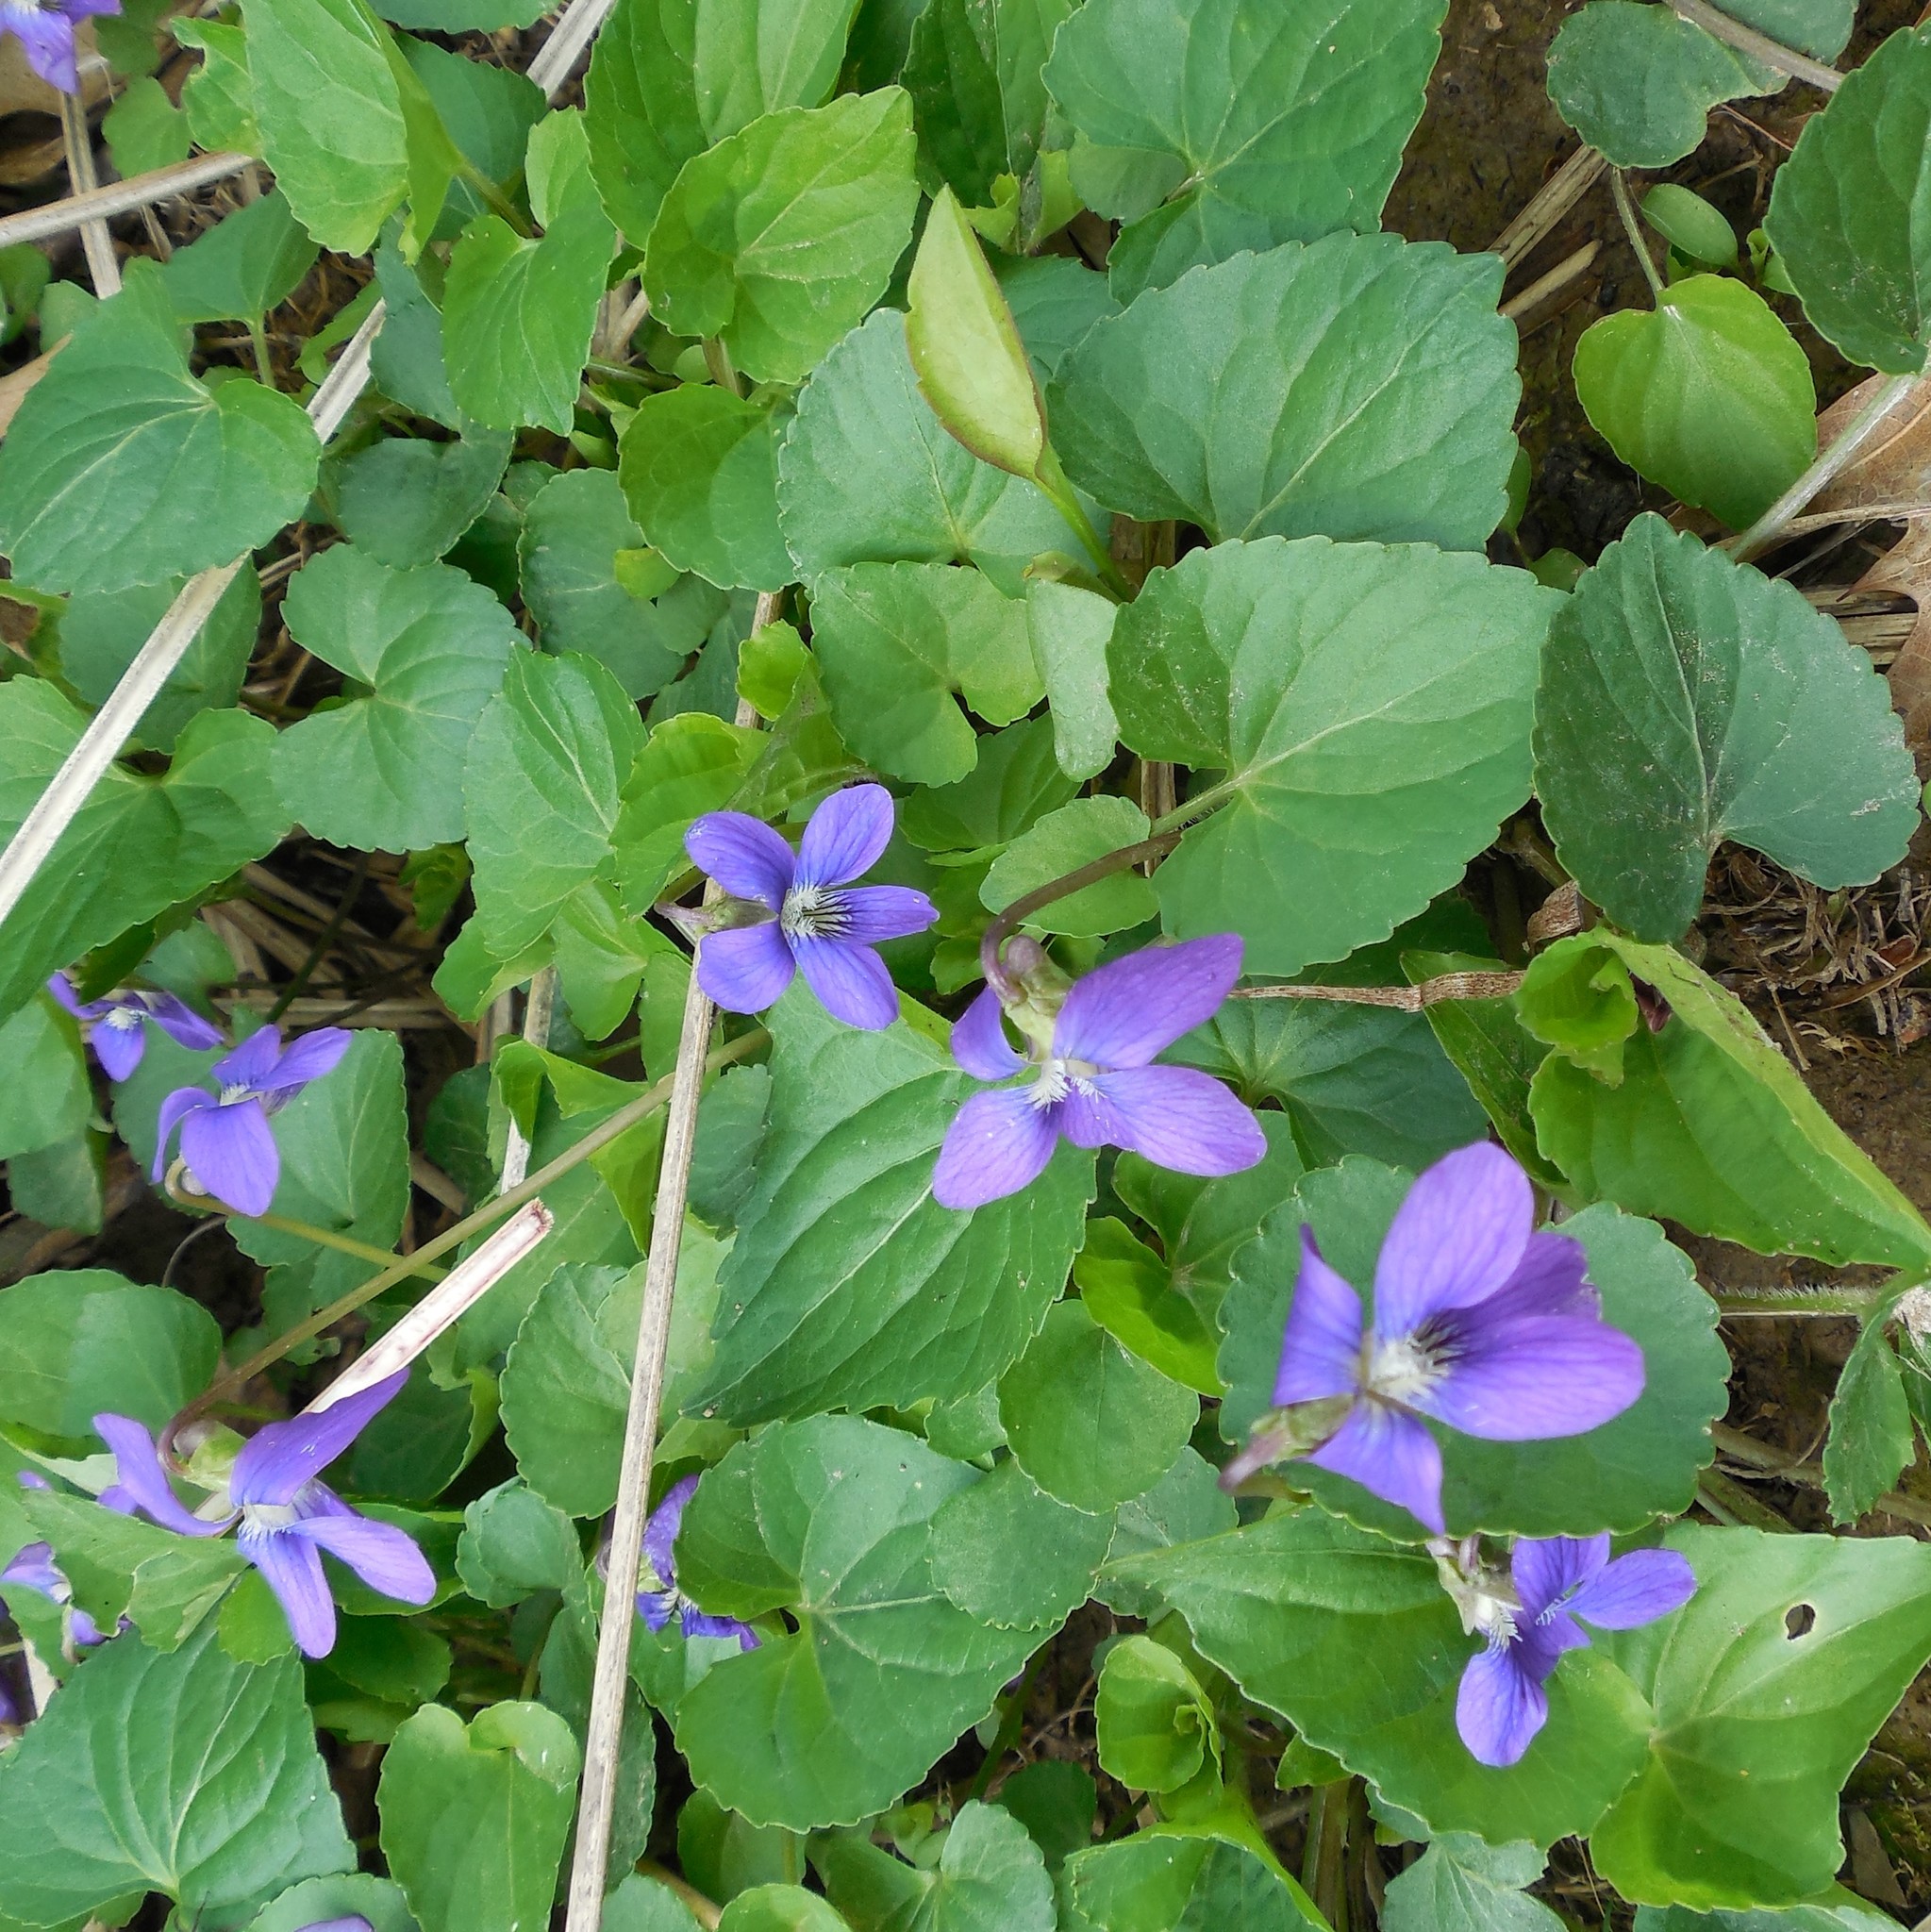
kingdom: Plantae
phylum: Tracheophyta
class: Magnoliopsida
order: Malpighiales
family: Violaceae
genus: Viola
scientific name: Viola sororia
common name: Dooryard violet
